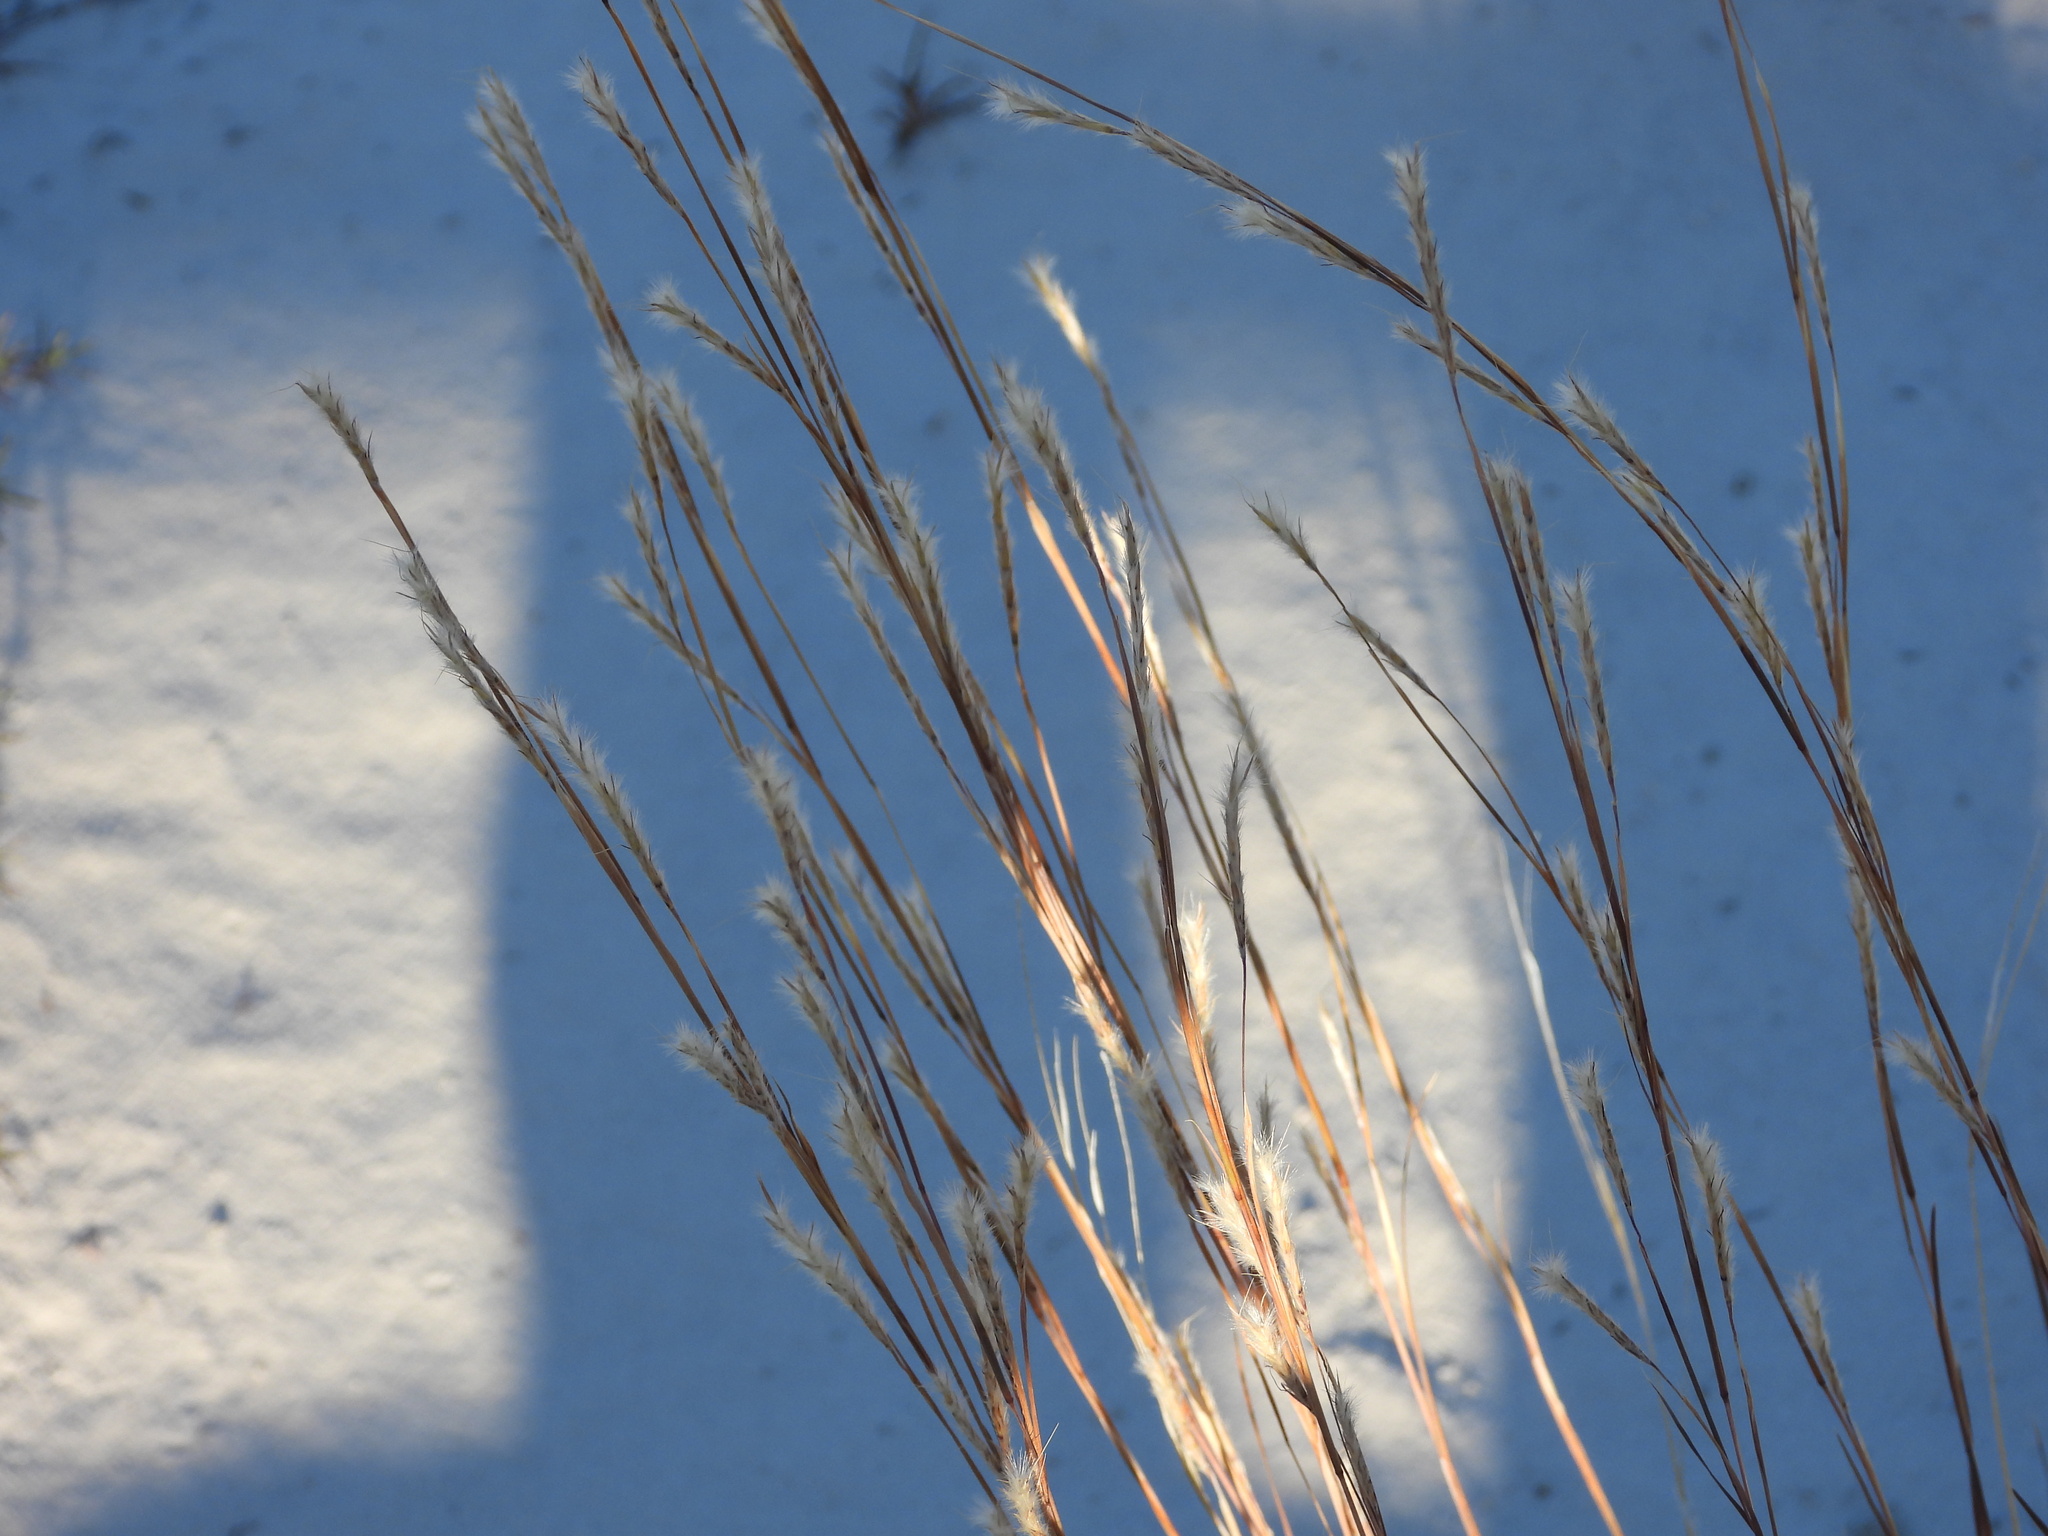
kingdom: Plantae
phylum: Tracheophyta
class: Liliopsida
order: Poales
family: Poaceae
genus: Schizachyrium
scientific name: Schizachyrium scoparium
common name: Little bluestem
